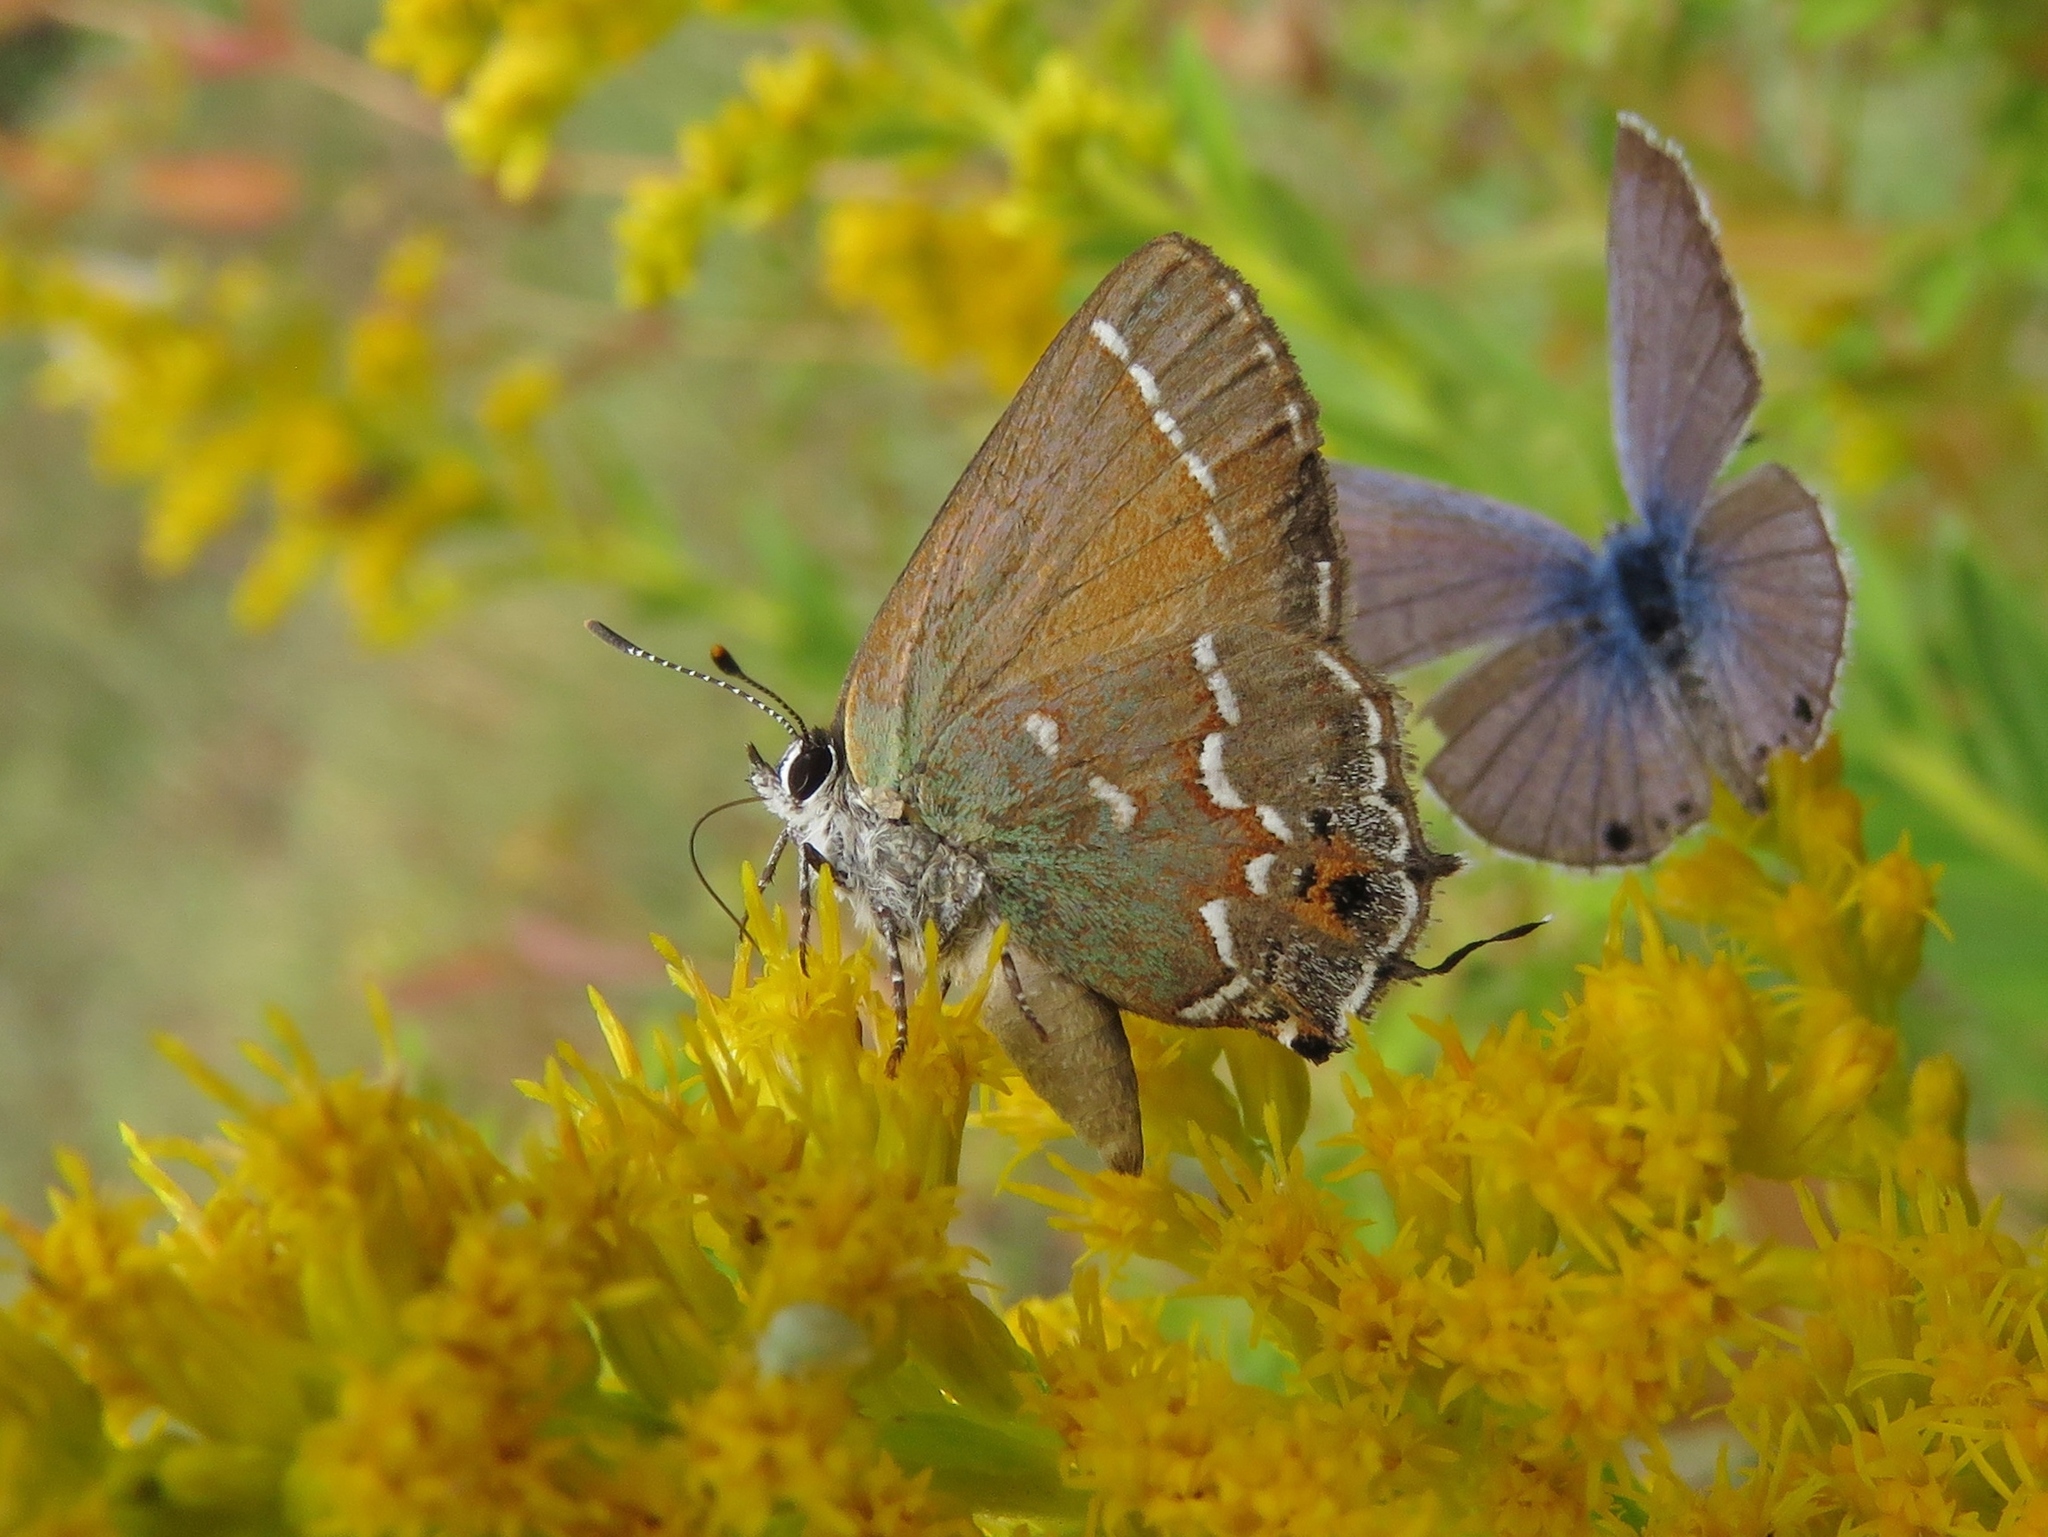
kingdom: Animalia
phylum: Arthropoda
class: Insecta
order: Lepidoptera
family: Lycaenidae
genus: Mitoura
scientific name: Mitoura gryneus
